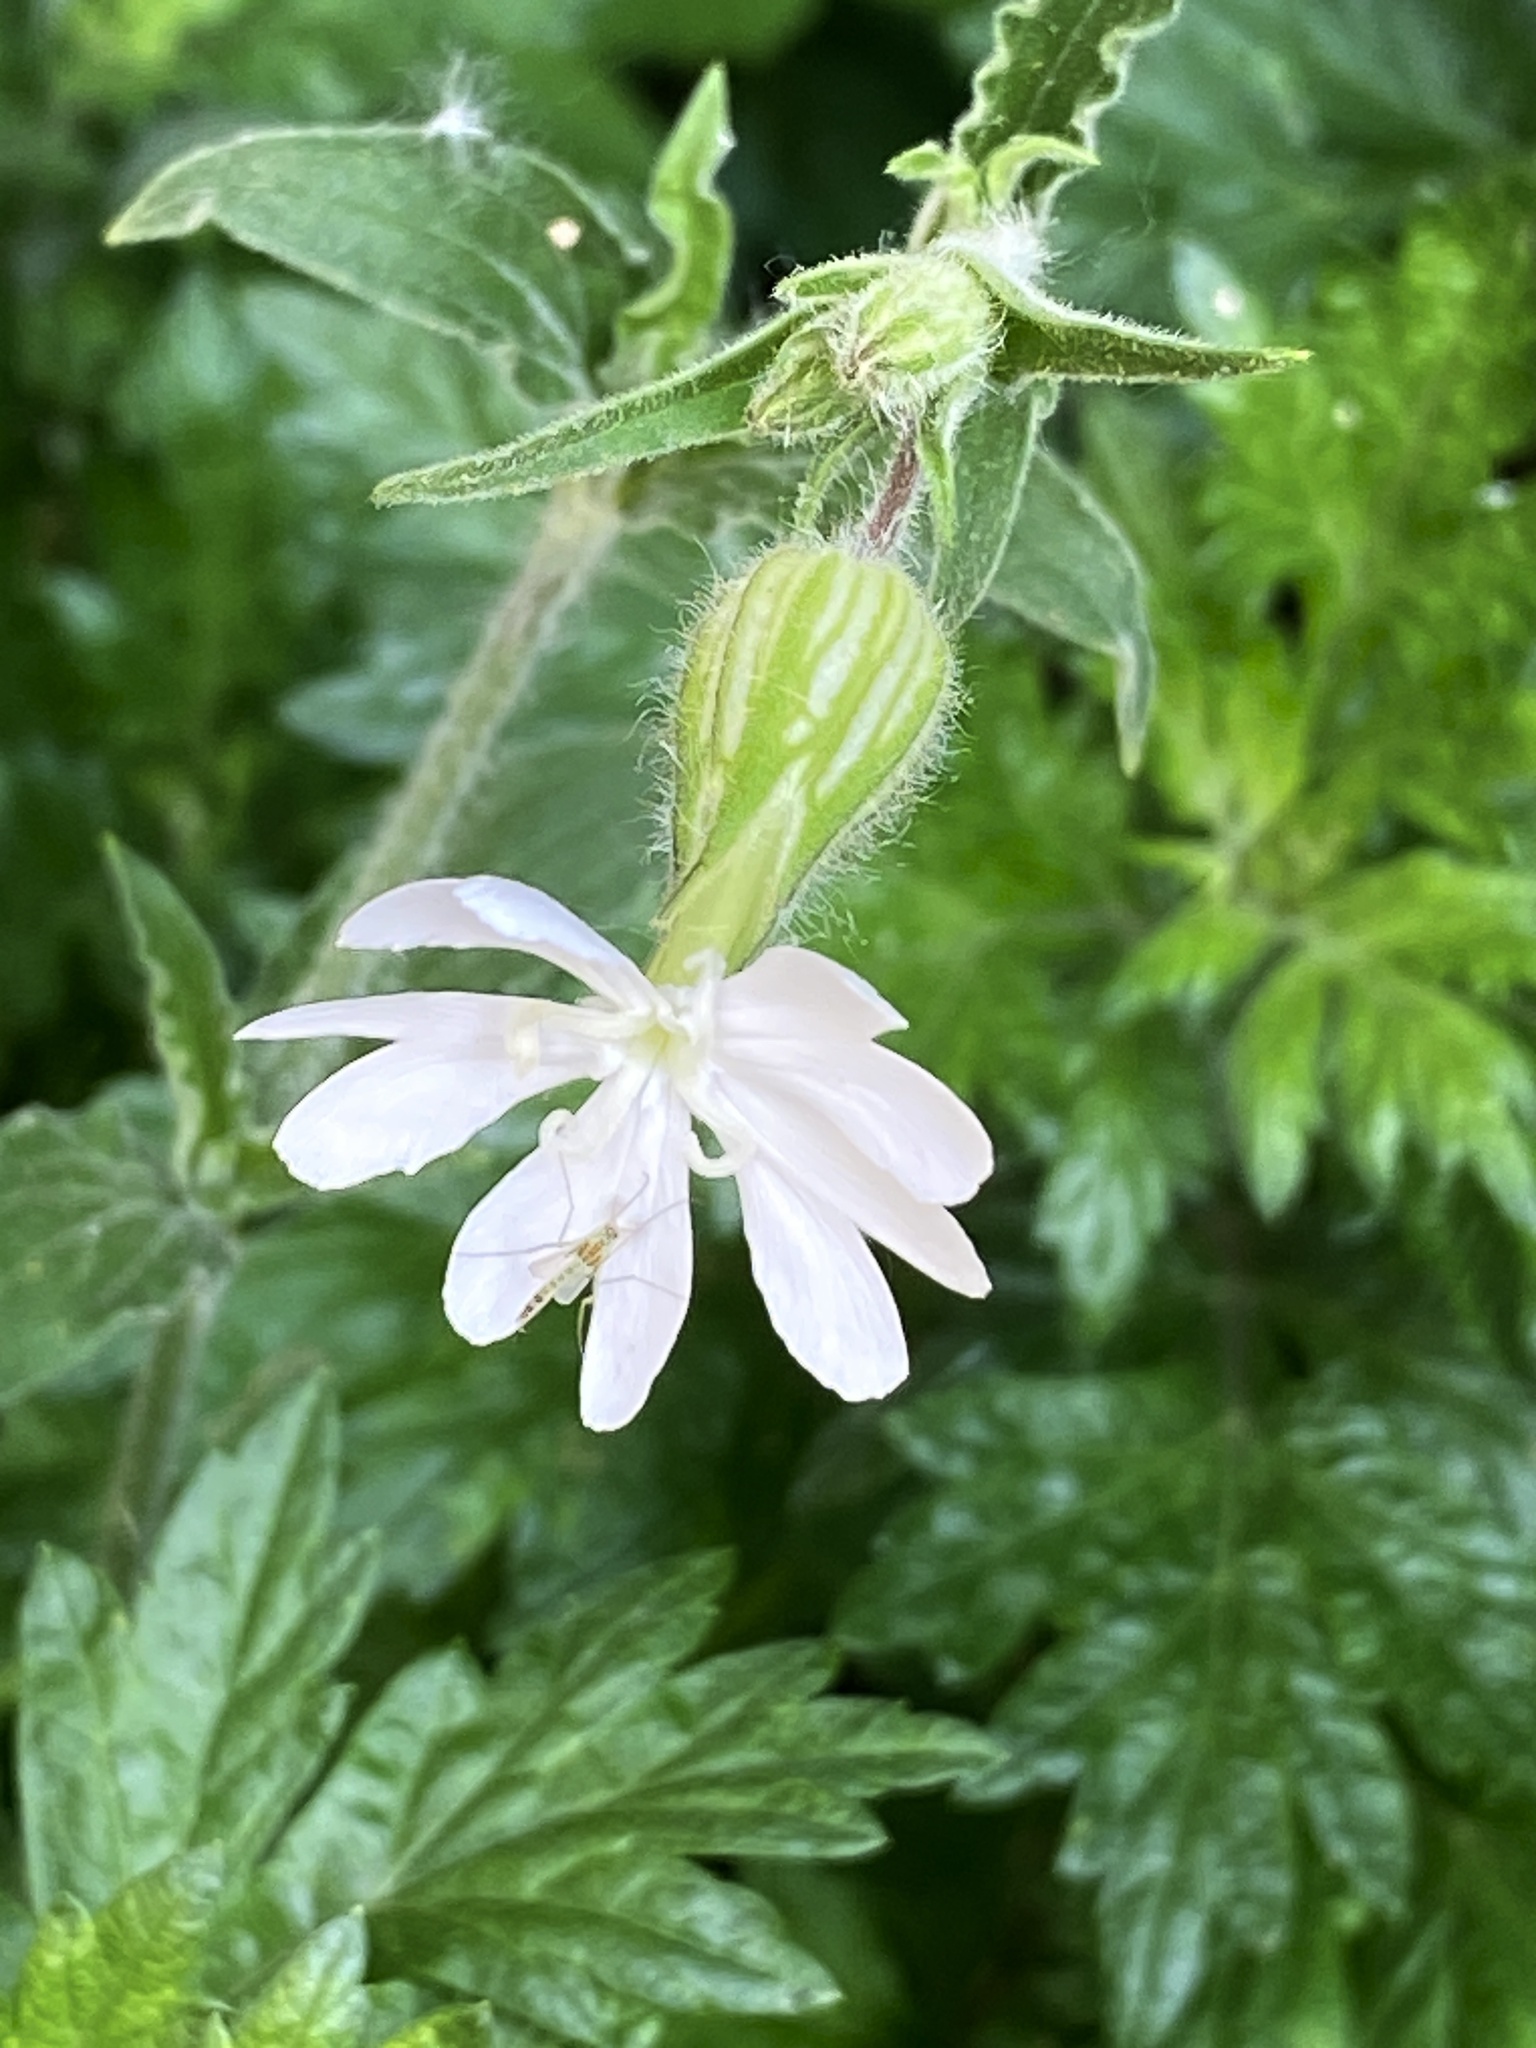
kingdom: Plantae
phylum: Tracheophyta
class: Magnoliopsida
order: Caryophyllales
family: Caryophyllaceae
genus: Silene
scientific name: Silene latifolia
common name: White campion
